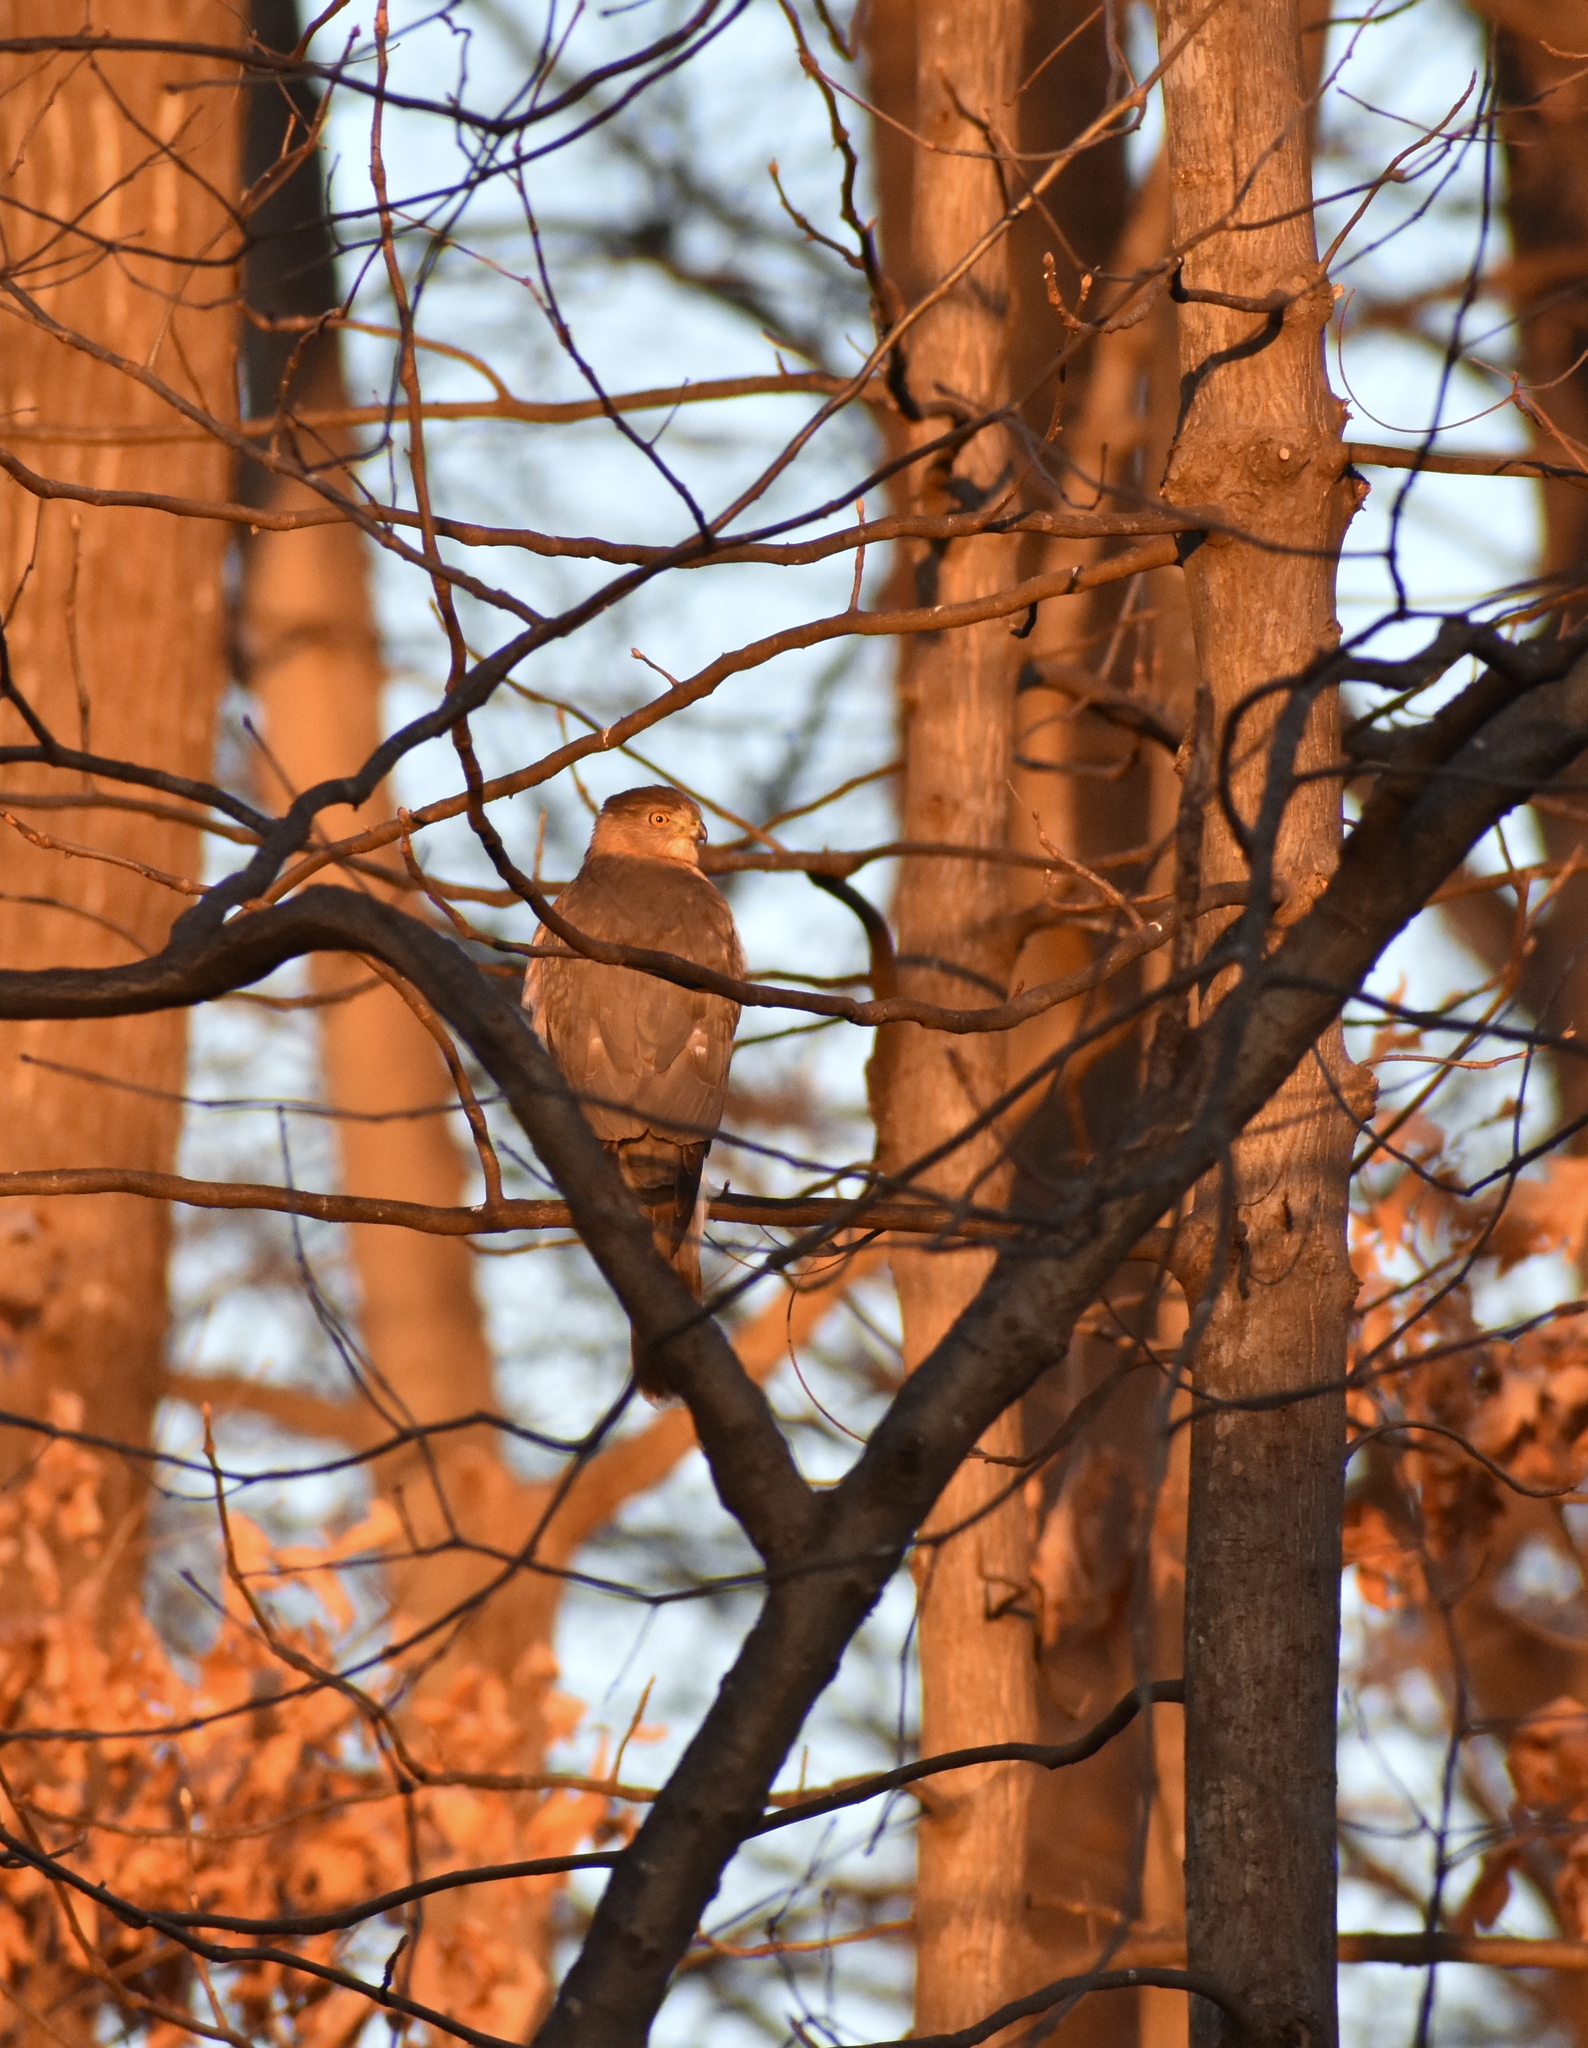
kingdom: Animalia
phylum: Chordata
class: Aves
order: Accipitriformes
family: Accipitridae
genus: Accipiter
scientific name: Accipiter cooperii
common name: Cooper's hawk
